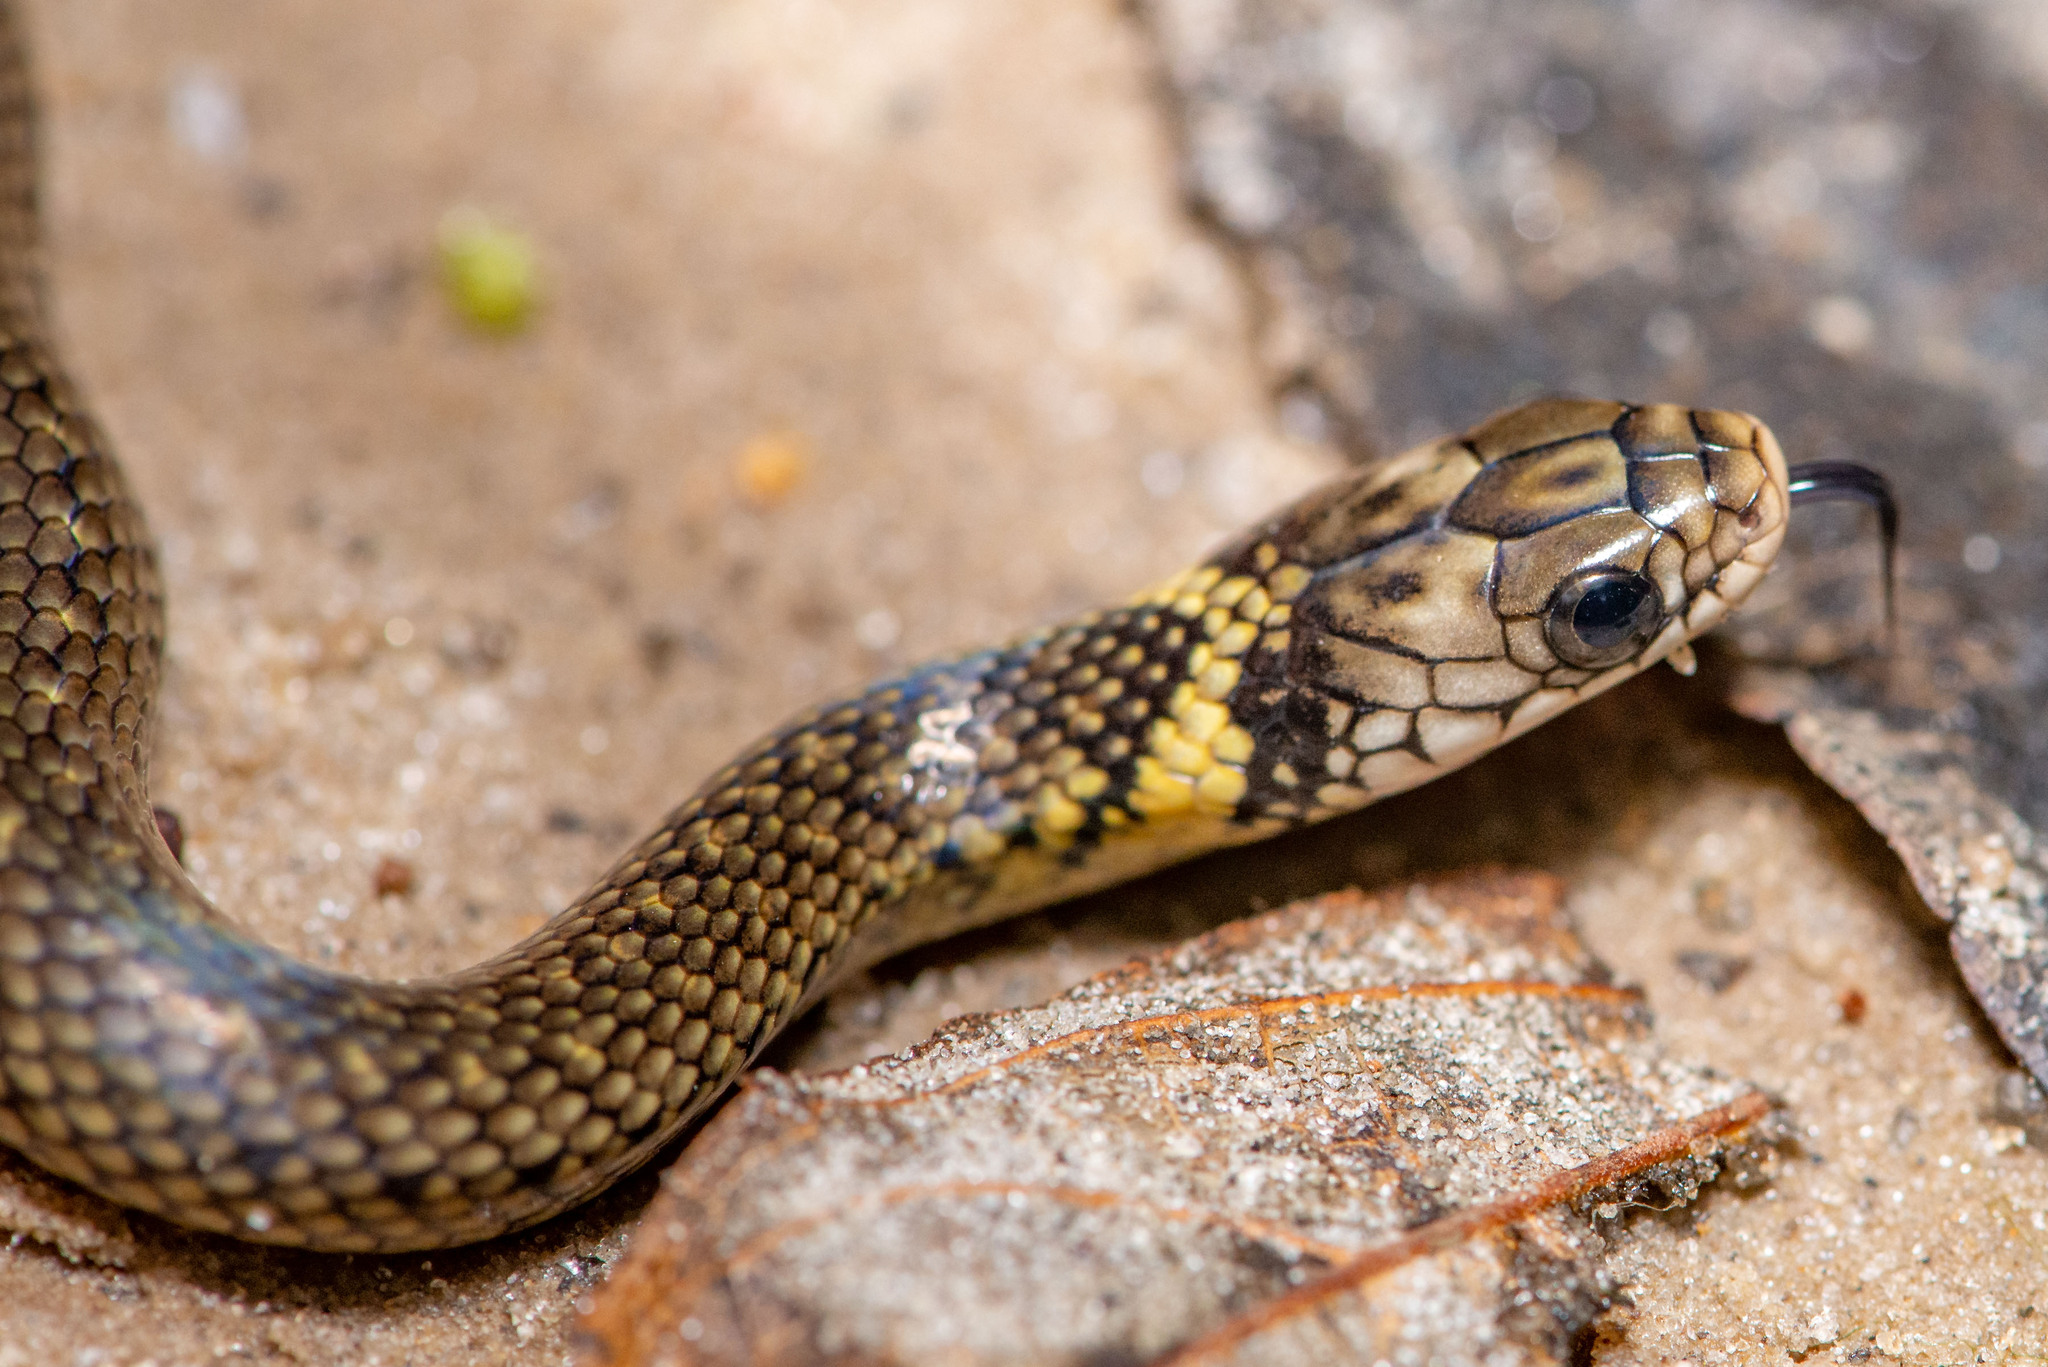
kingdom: Animalia
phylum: Chordata
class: Squamata
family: Colubridae
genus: Erythrolamprus
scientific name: Erythrolamprus miliaris
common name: Military ground snake
